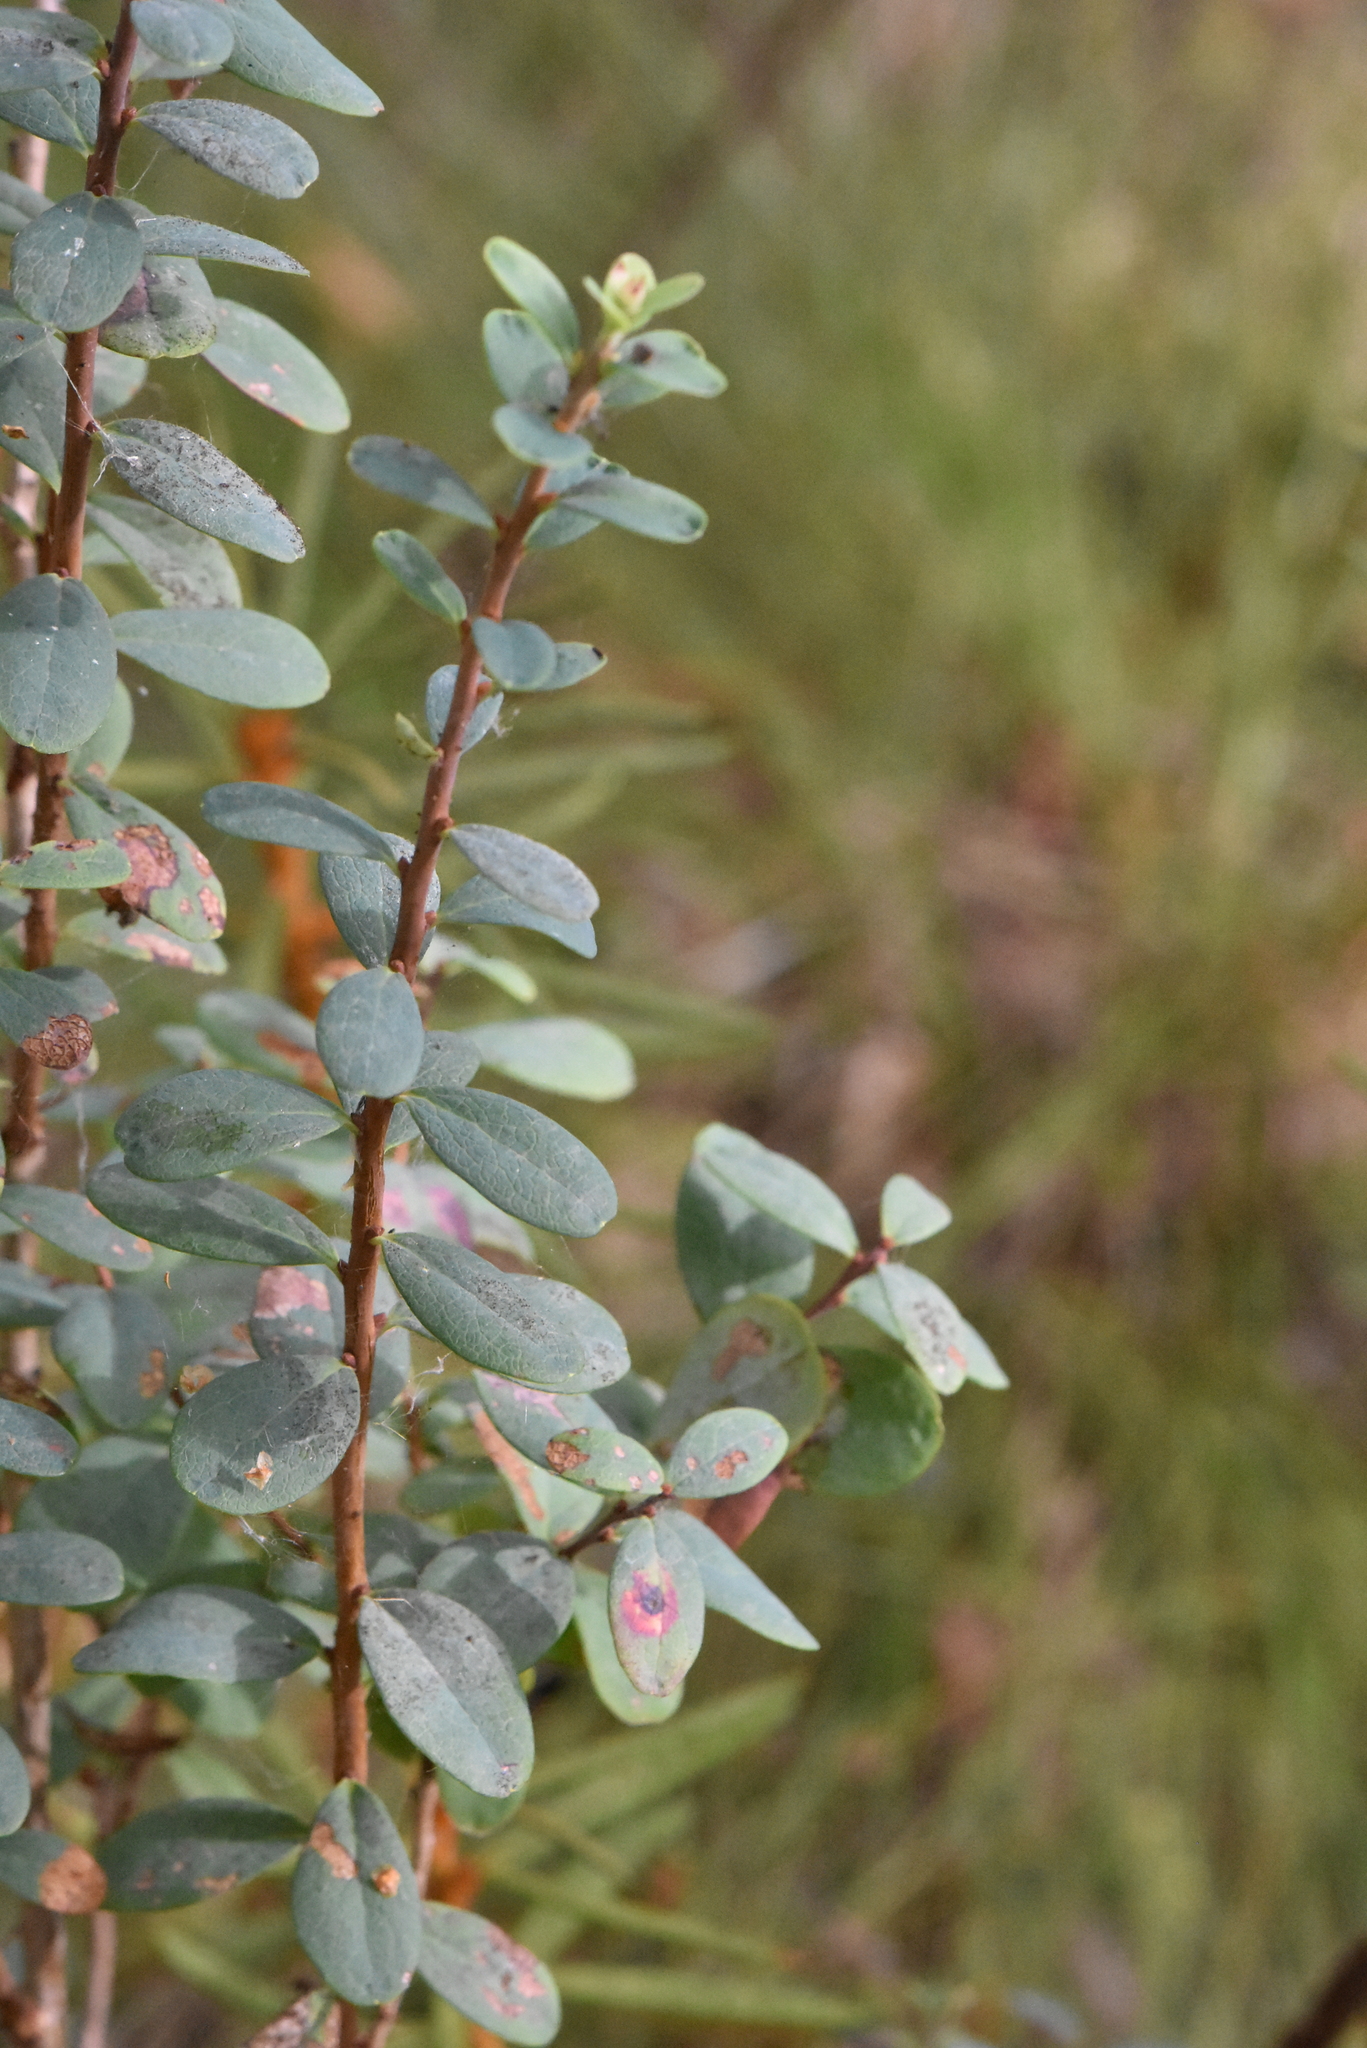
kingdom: Plantae
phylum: Tracheophyta
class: Magnoliopsida
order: Ericales
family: Ericaceae
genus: Vaccinium
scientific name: Vaccinium uliginosum
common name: Bog bilberry
